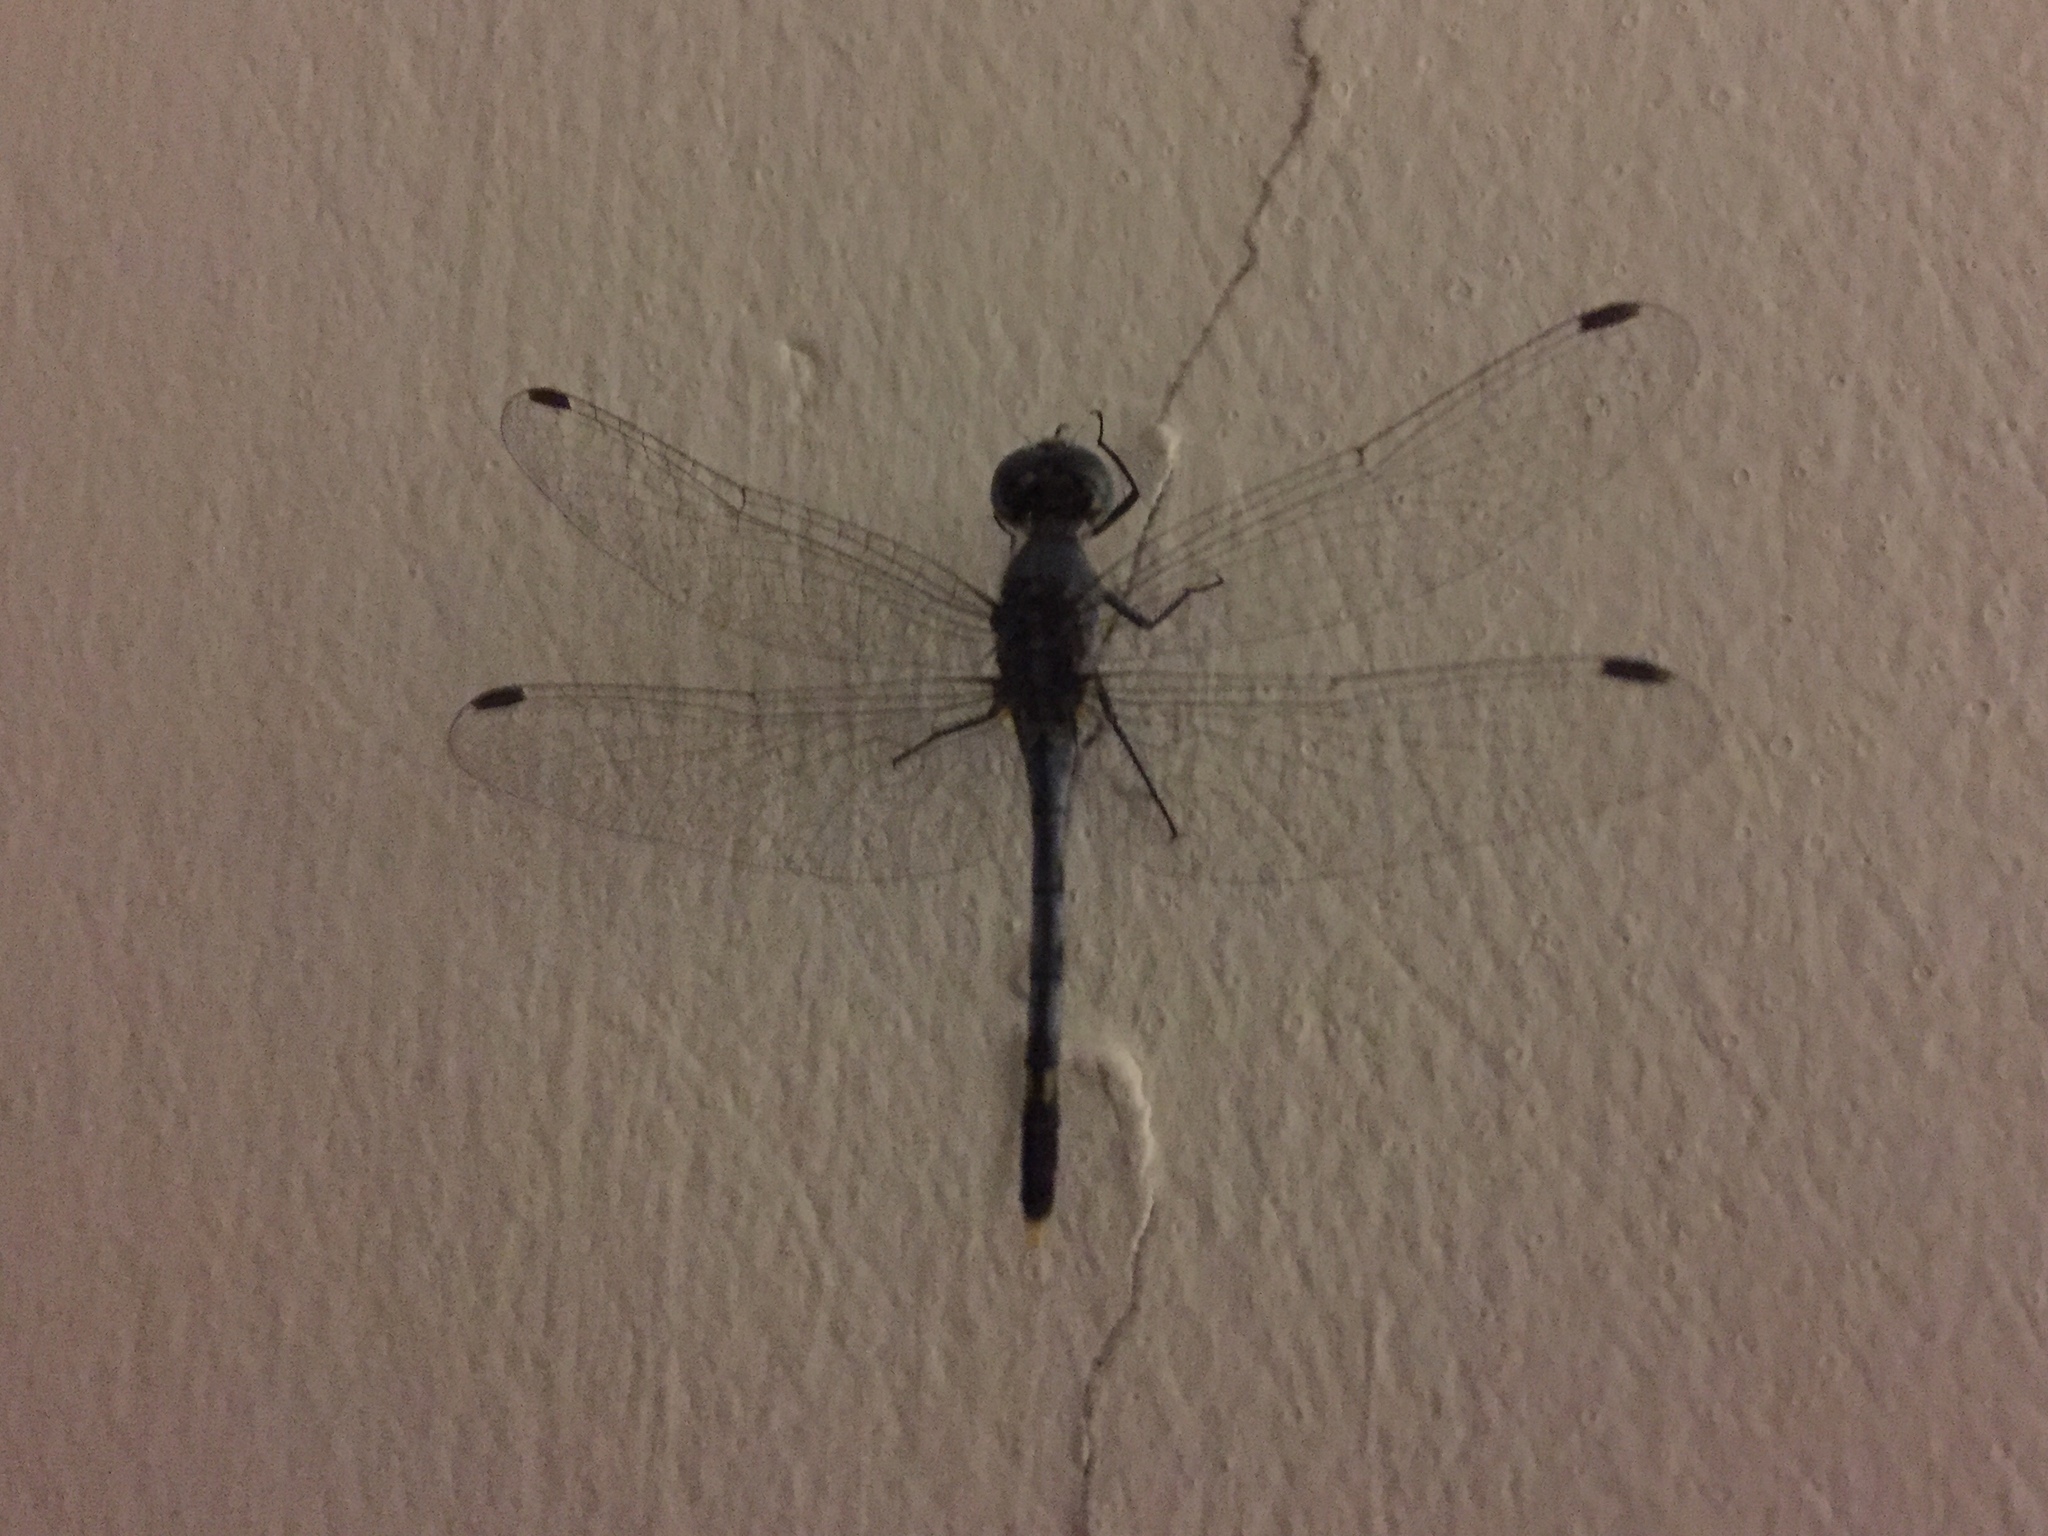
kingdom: Animalia
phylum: Arthropoda
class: Insecta
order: Odonata
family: Libellulidae
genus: Diplacodes
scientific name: Diplacodes trivialis
